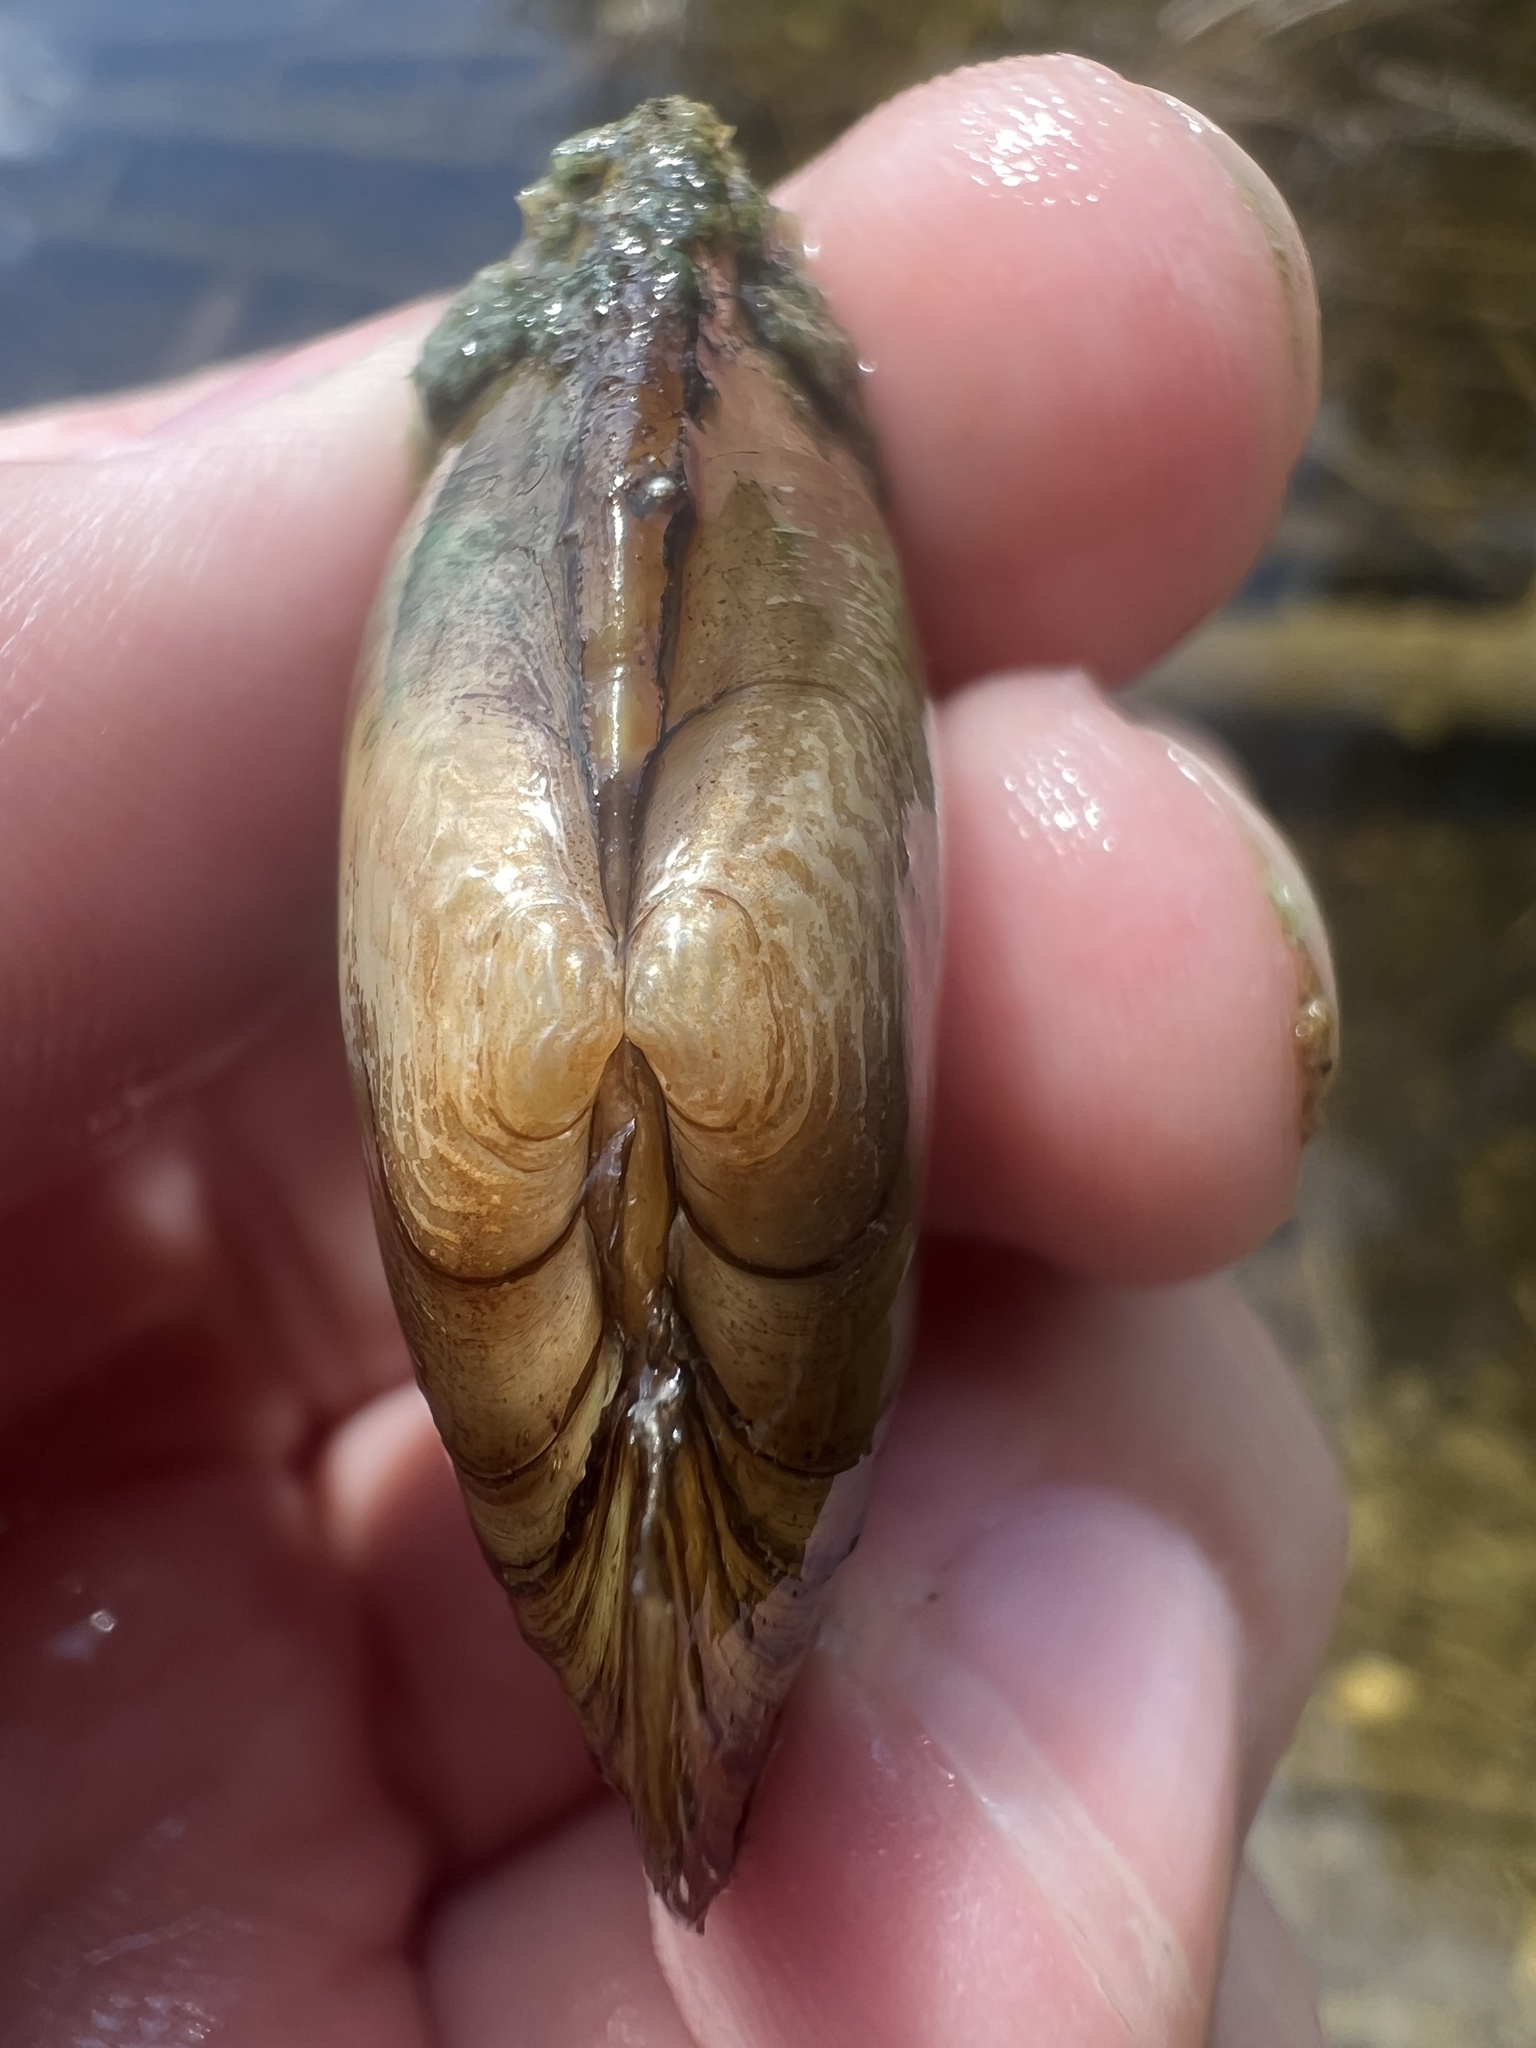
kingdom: Animalia
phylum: Mollusca
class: Bivalvia
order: Unionida
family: Unionidae
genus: Lampsilis
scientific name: Lampsilis siliquoidea
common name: Fatmucket
